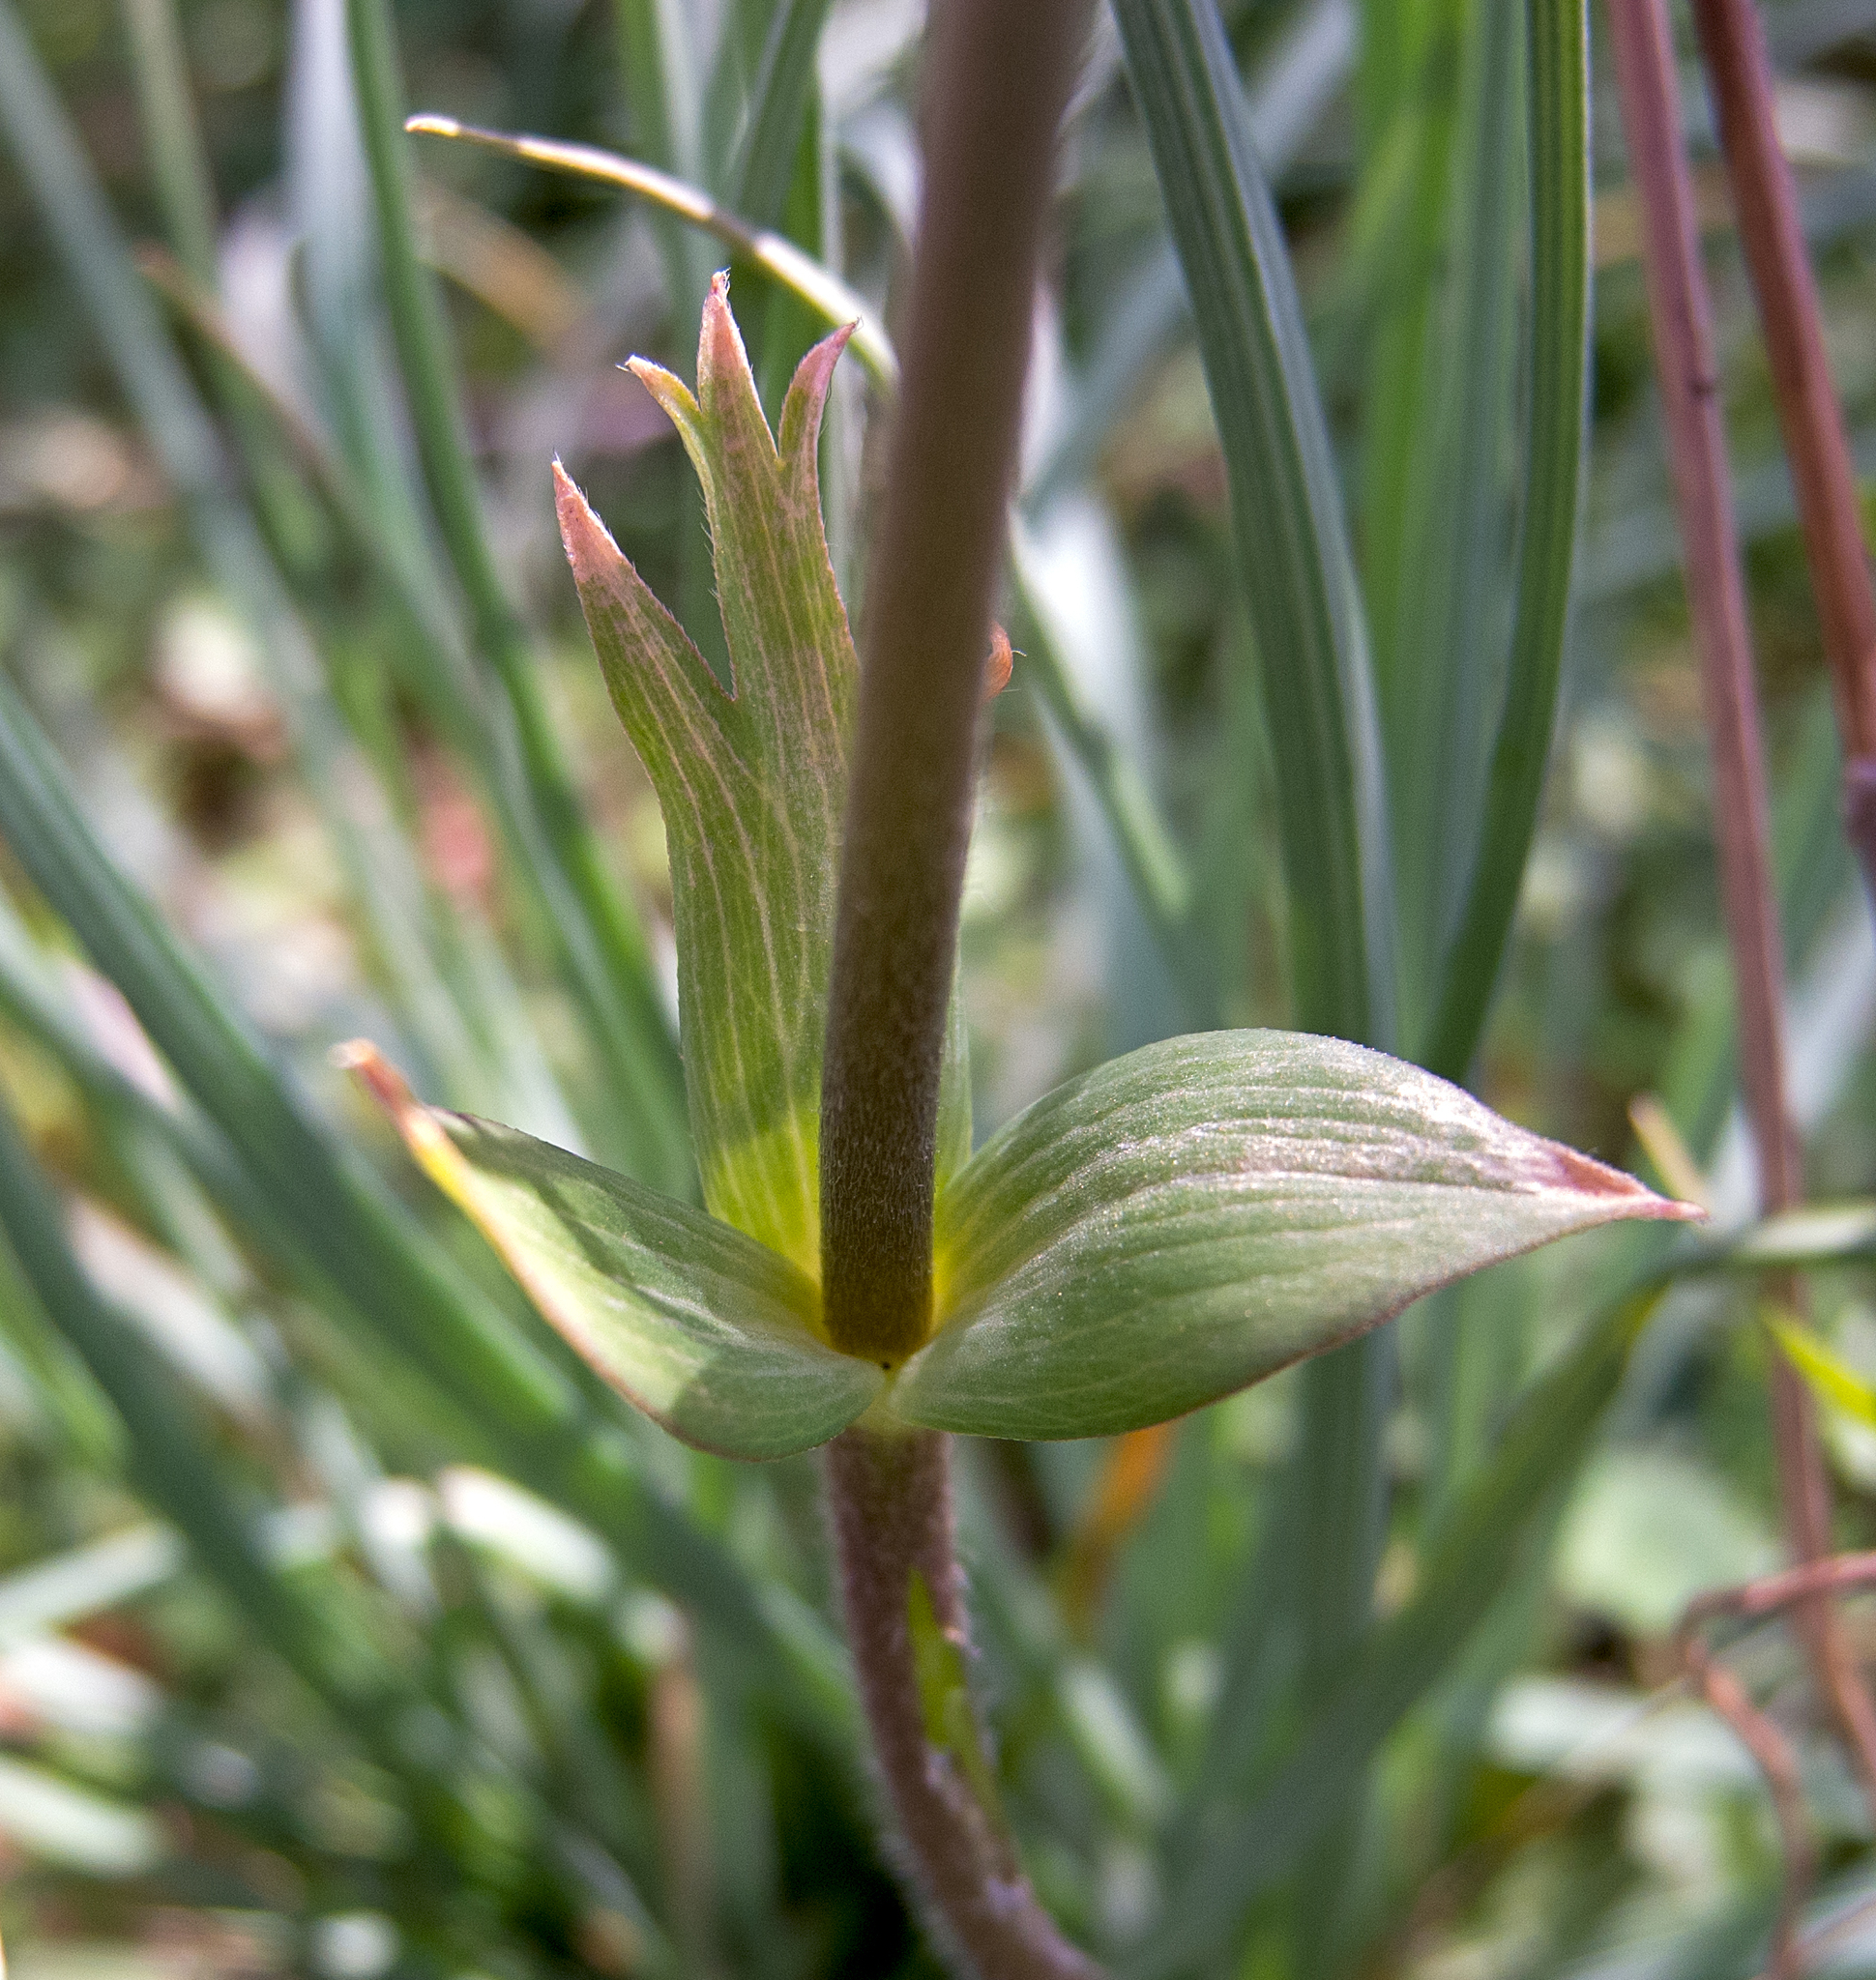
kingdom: Plantae
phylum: Tracheophyta
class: Magnoliopsida
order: Ranunculales
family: Ranunculaceae
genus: Anemone
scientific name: Anemone pavonina
